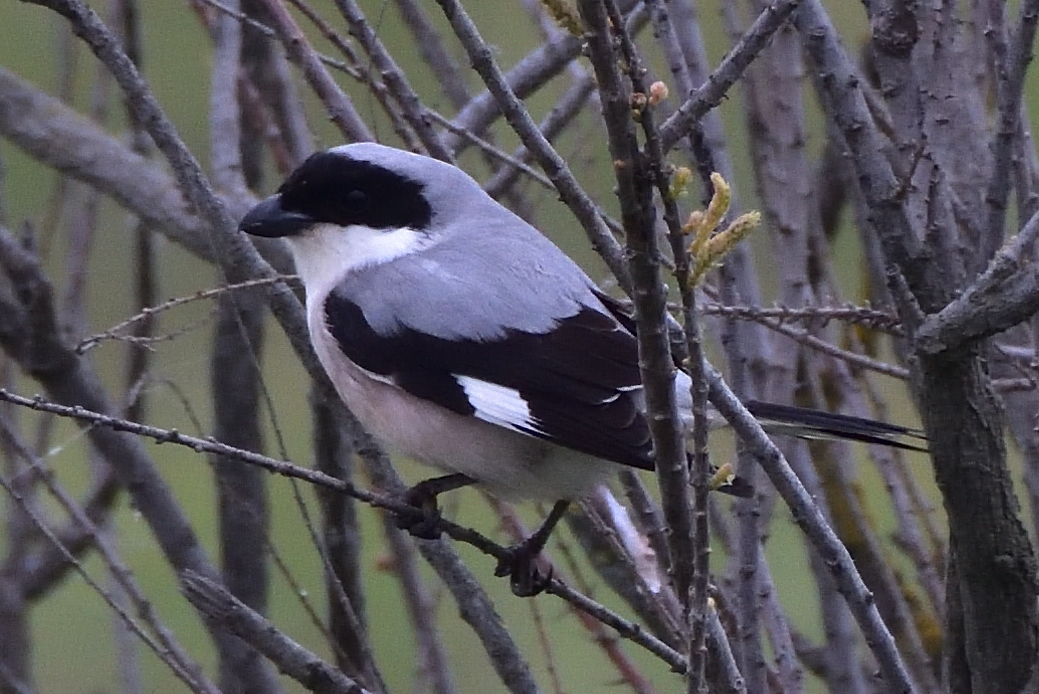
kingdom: Animalia
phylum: Chordata
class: Aves
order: Passeriformes
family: Laniidae
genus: Lanius
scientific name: Lanius minor
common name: Lesser grey shrike
